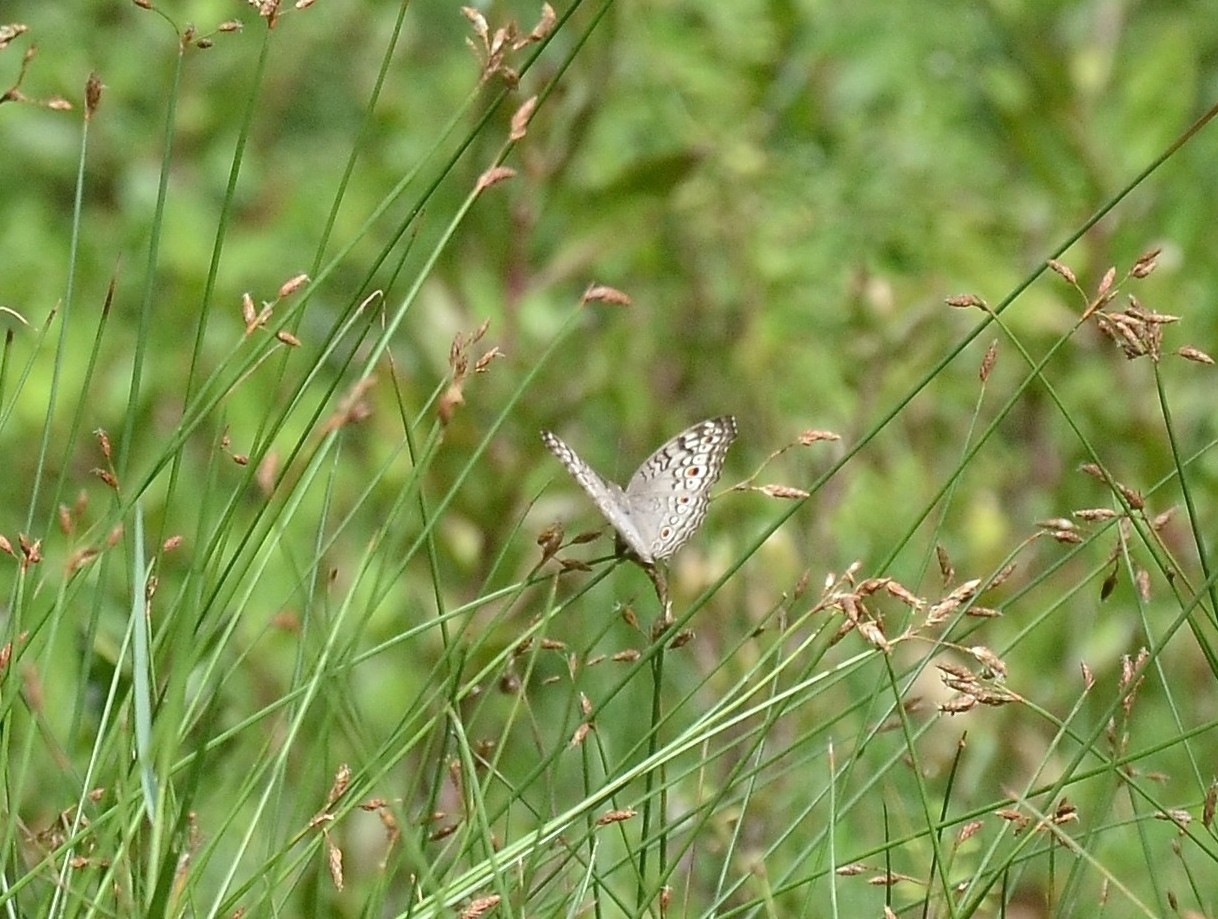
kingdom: Animalia
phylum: Arthropoda
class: Insecta
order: Lepidoptera
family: Nymphalidae
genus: Junonia
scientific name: Junonia atlites
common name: Grey pansy
